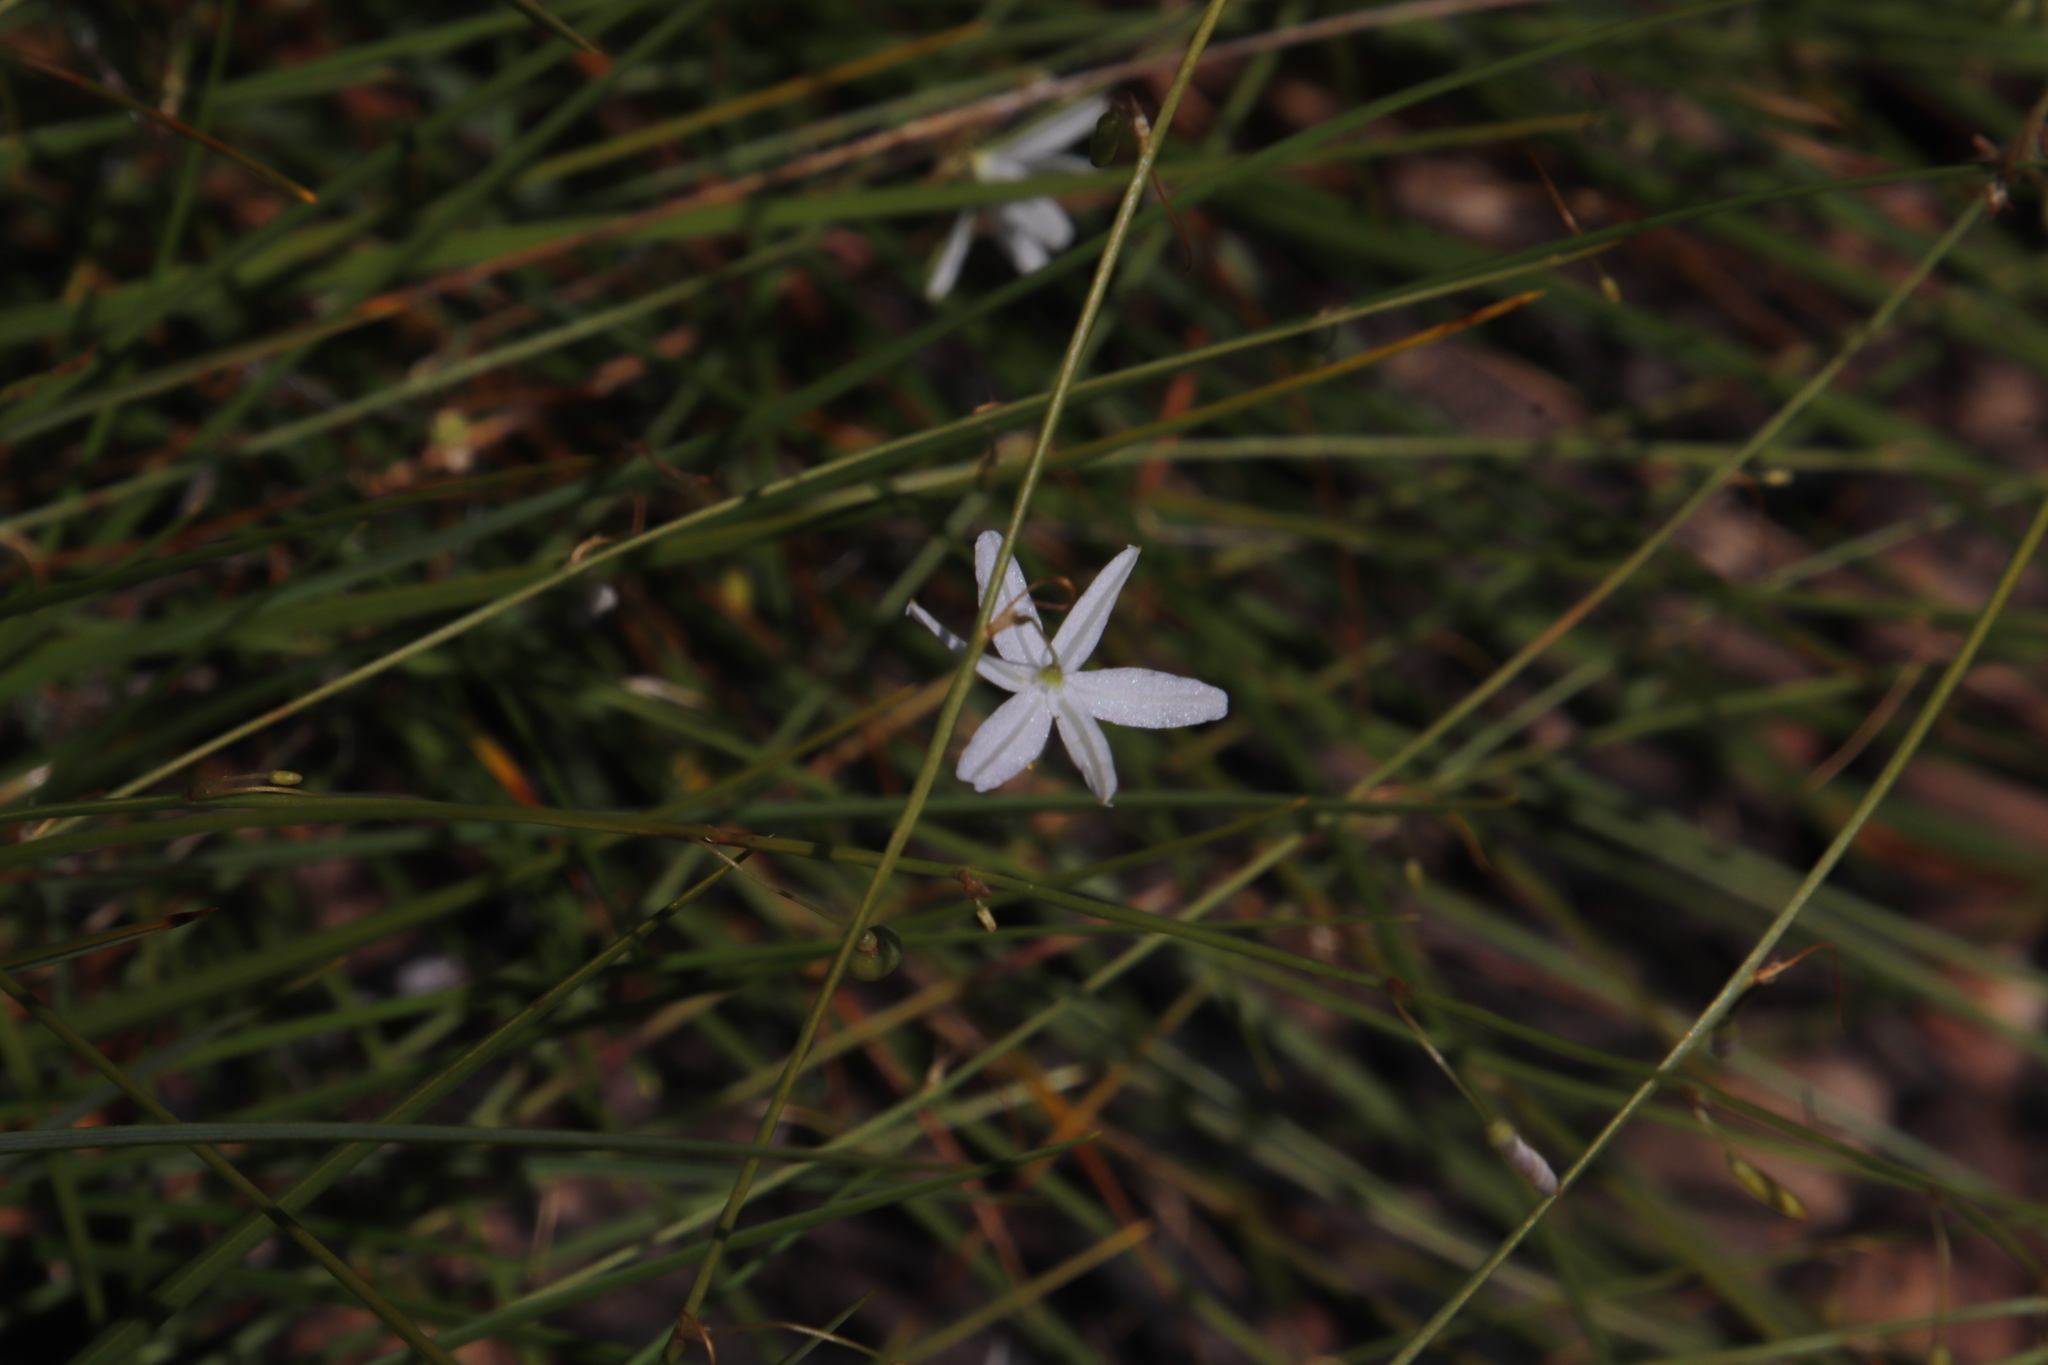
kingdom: Plantae
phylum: Tracheophyta
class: Liliopsida
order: Asparagales
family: Asphodelaceae
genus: Caesia
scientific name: Caesia contorta
